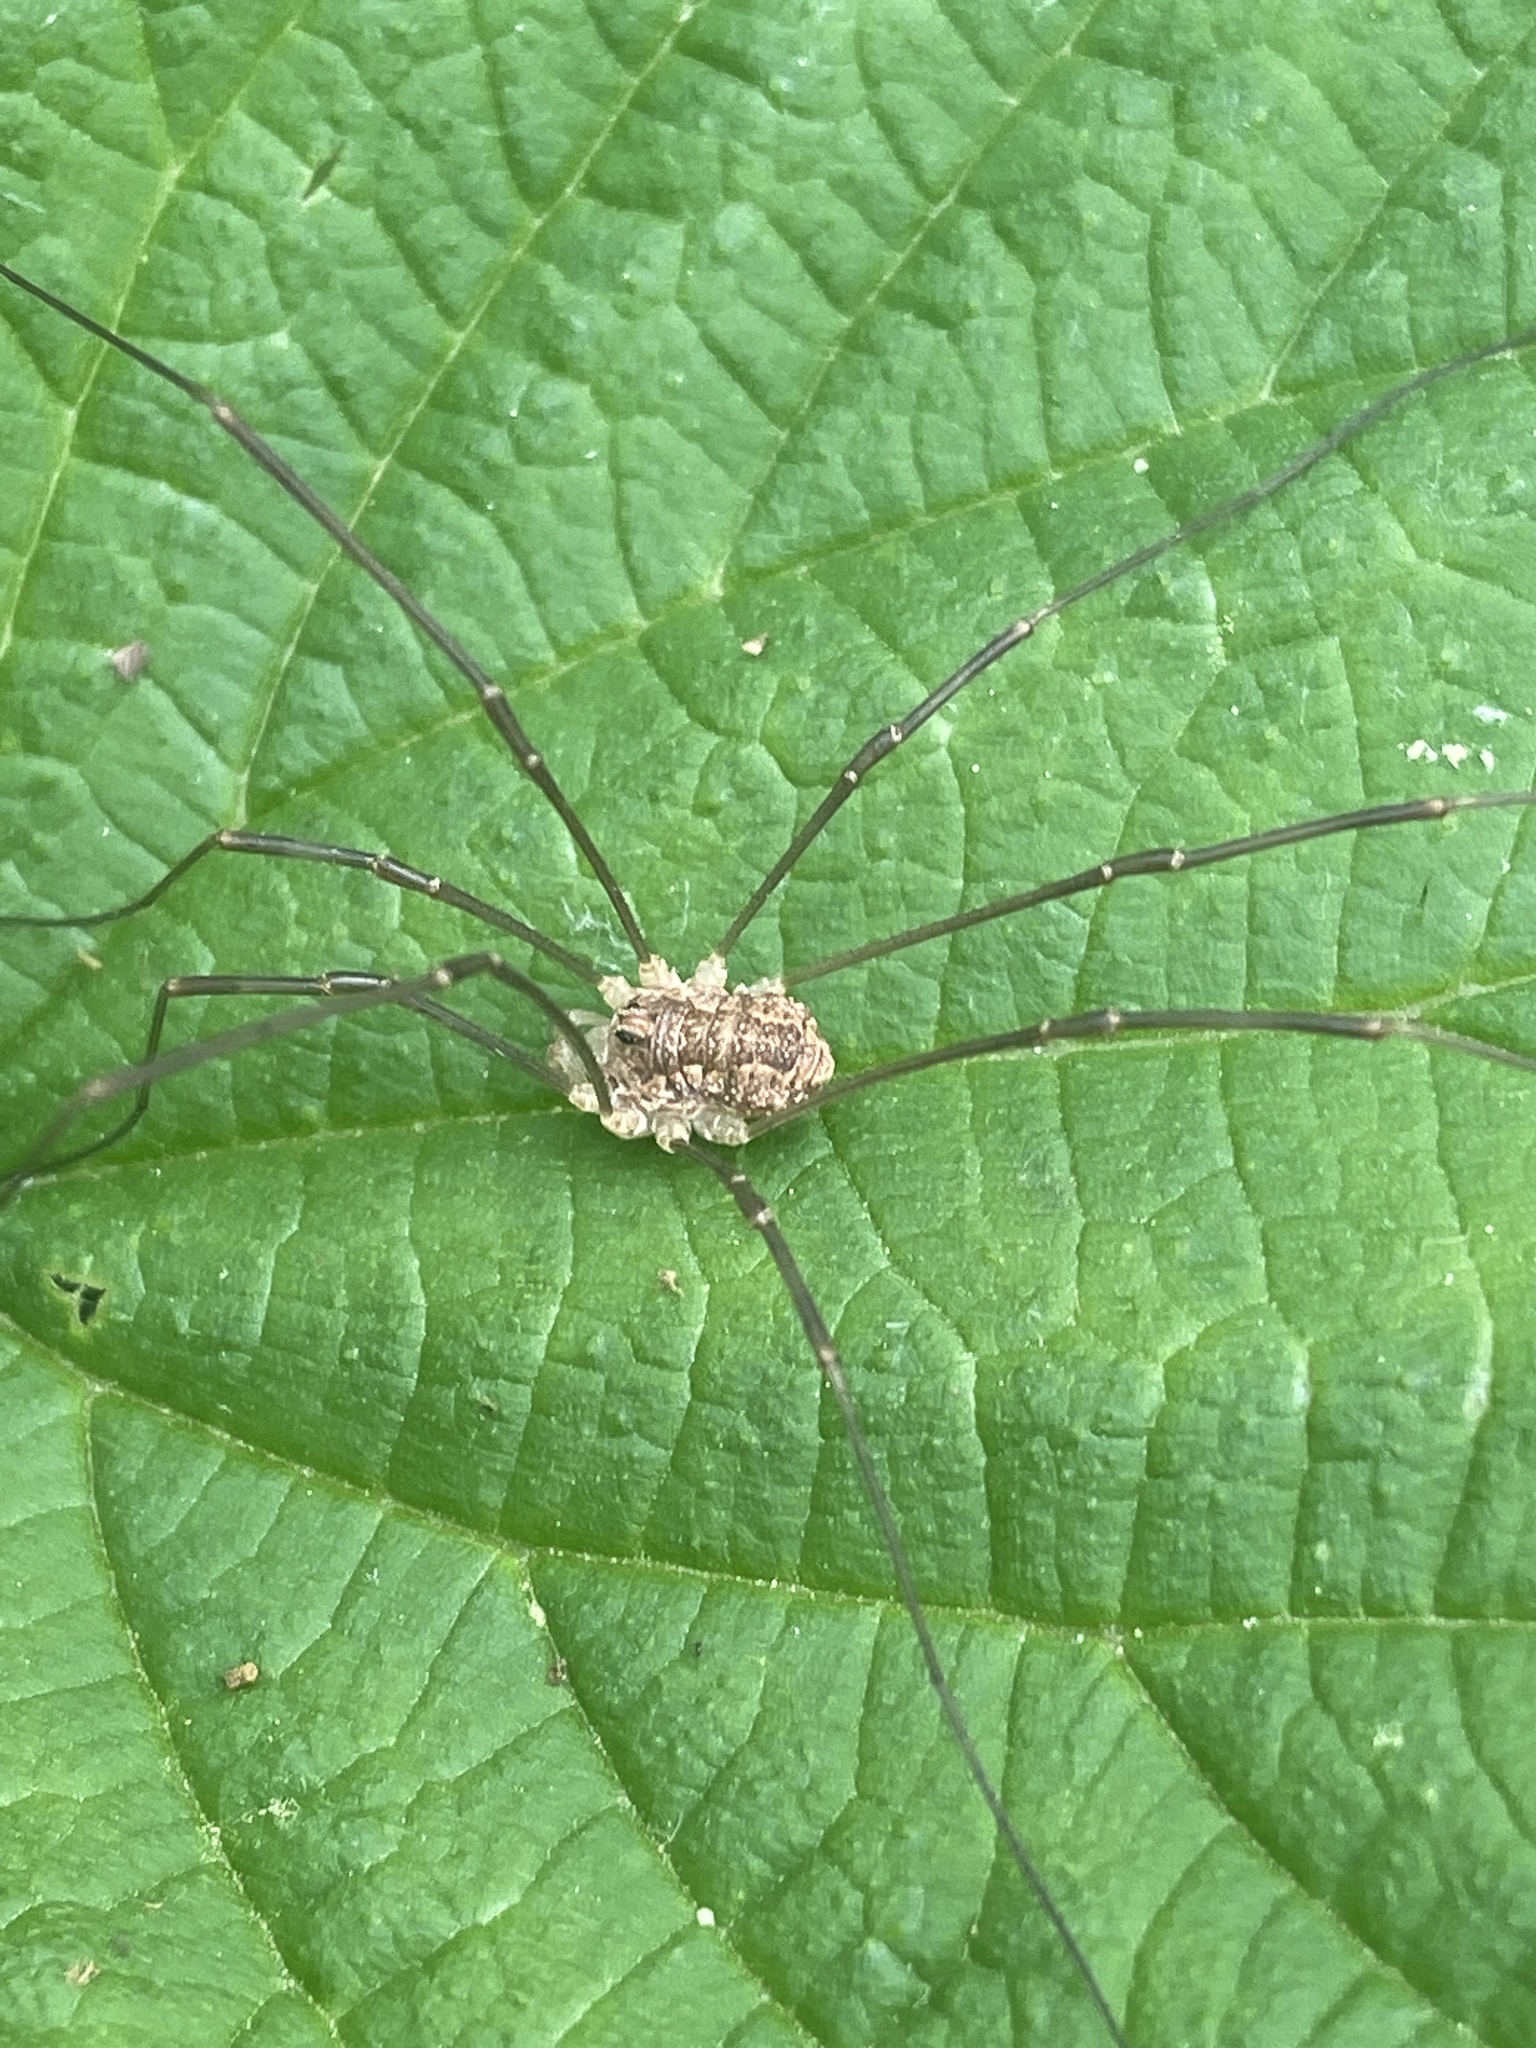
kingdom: Animalia
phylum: Arthropoda
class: Arachnida
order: Opiliones
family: Phalangiidae
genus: Rilaena
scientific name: Rilaena triangularis
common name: Spring harvestman
